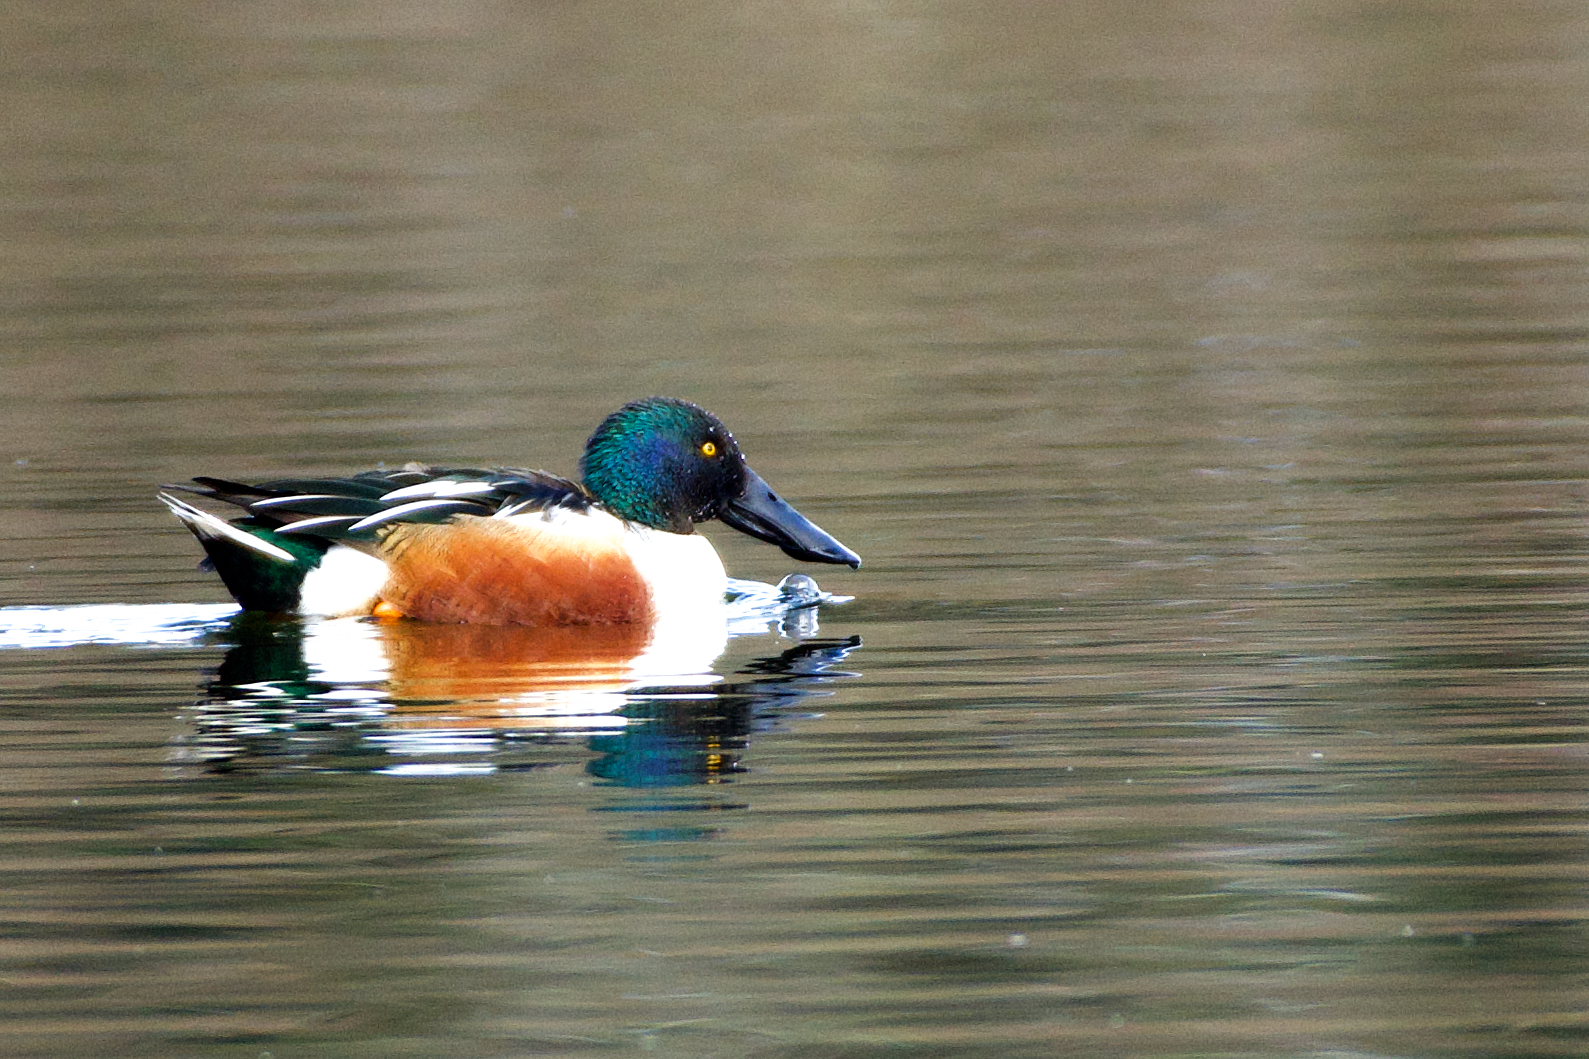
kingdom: Animalia
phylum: Chordata
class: Aves
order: Anseriformes
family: Anatidae
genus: Spatula
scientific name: Spatula clypeata
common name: Northern shoveler
